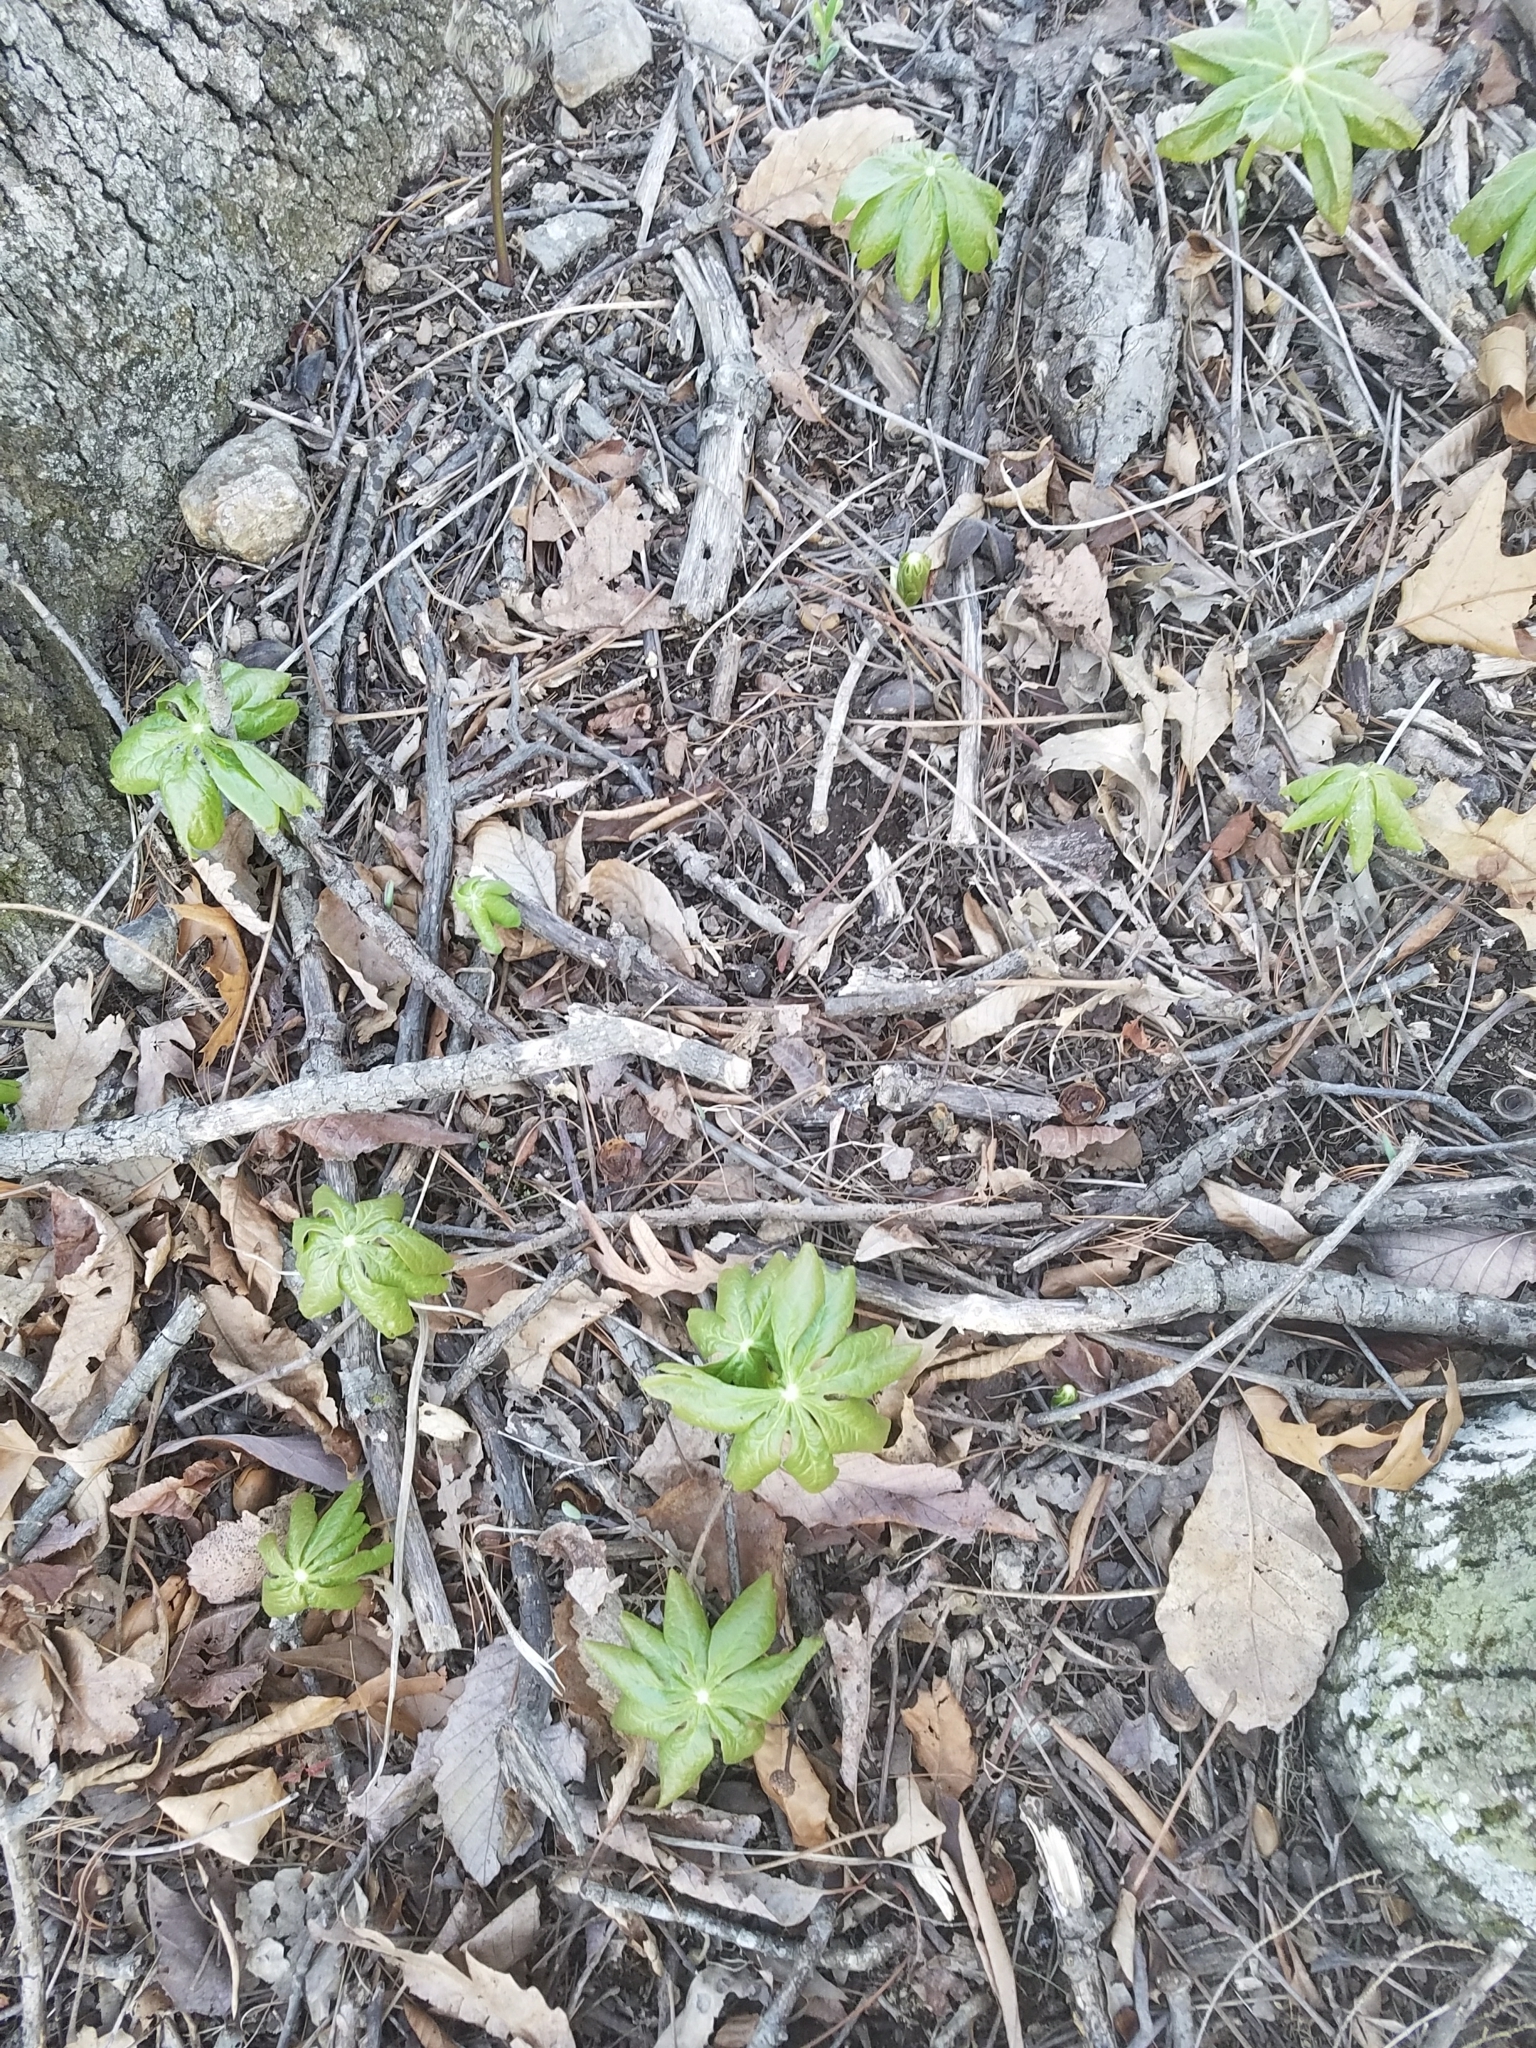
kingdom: Plantae
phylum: Tracheophyta
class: Magnoliopsida
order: Ranunculales
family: Berberidaceae
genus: Podophyllum
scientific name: Podophyllum peltatum
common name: Wild mandrake
